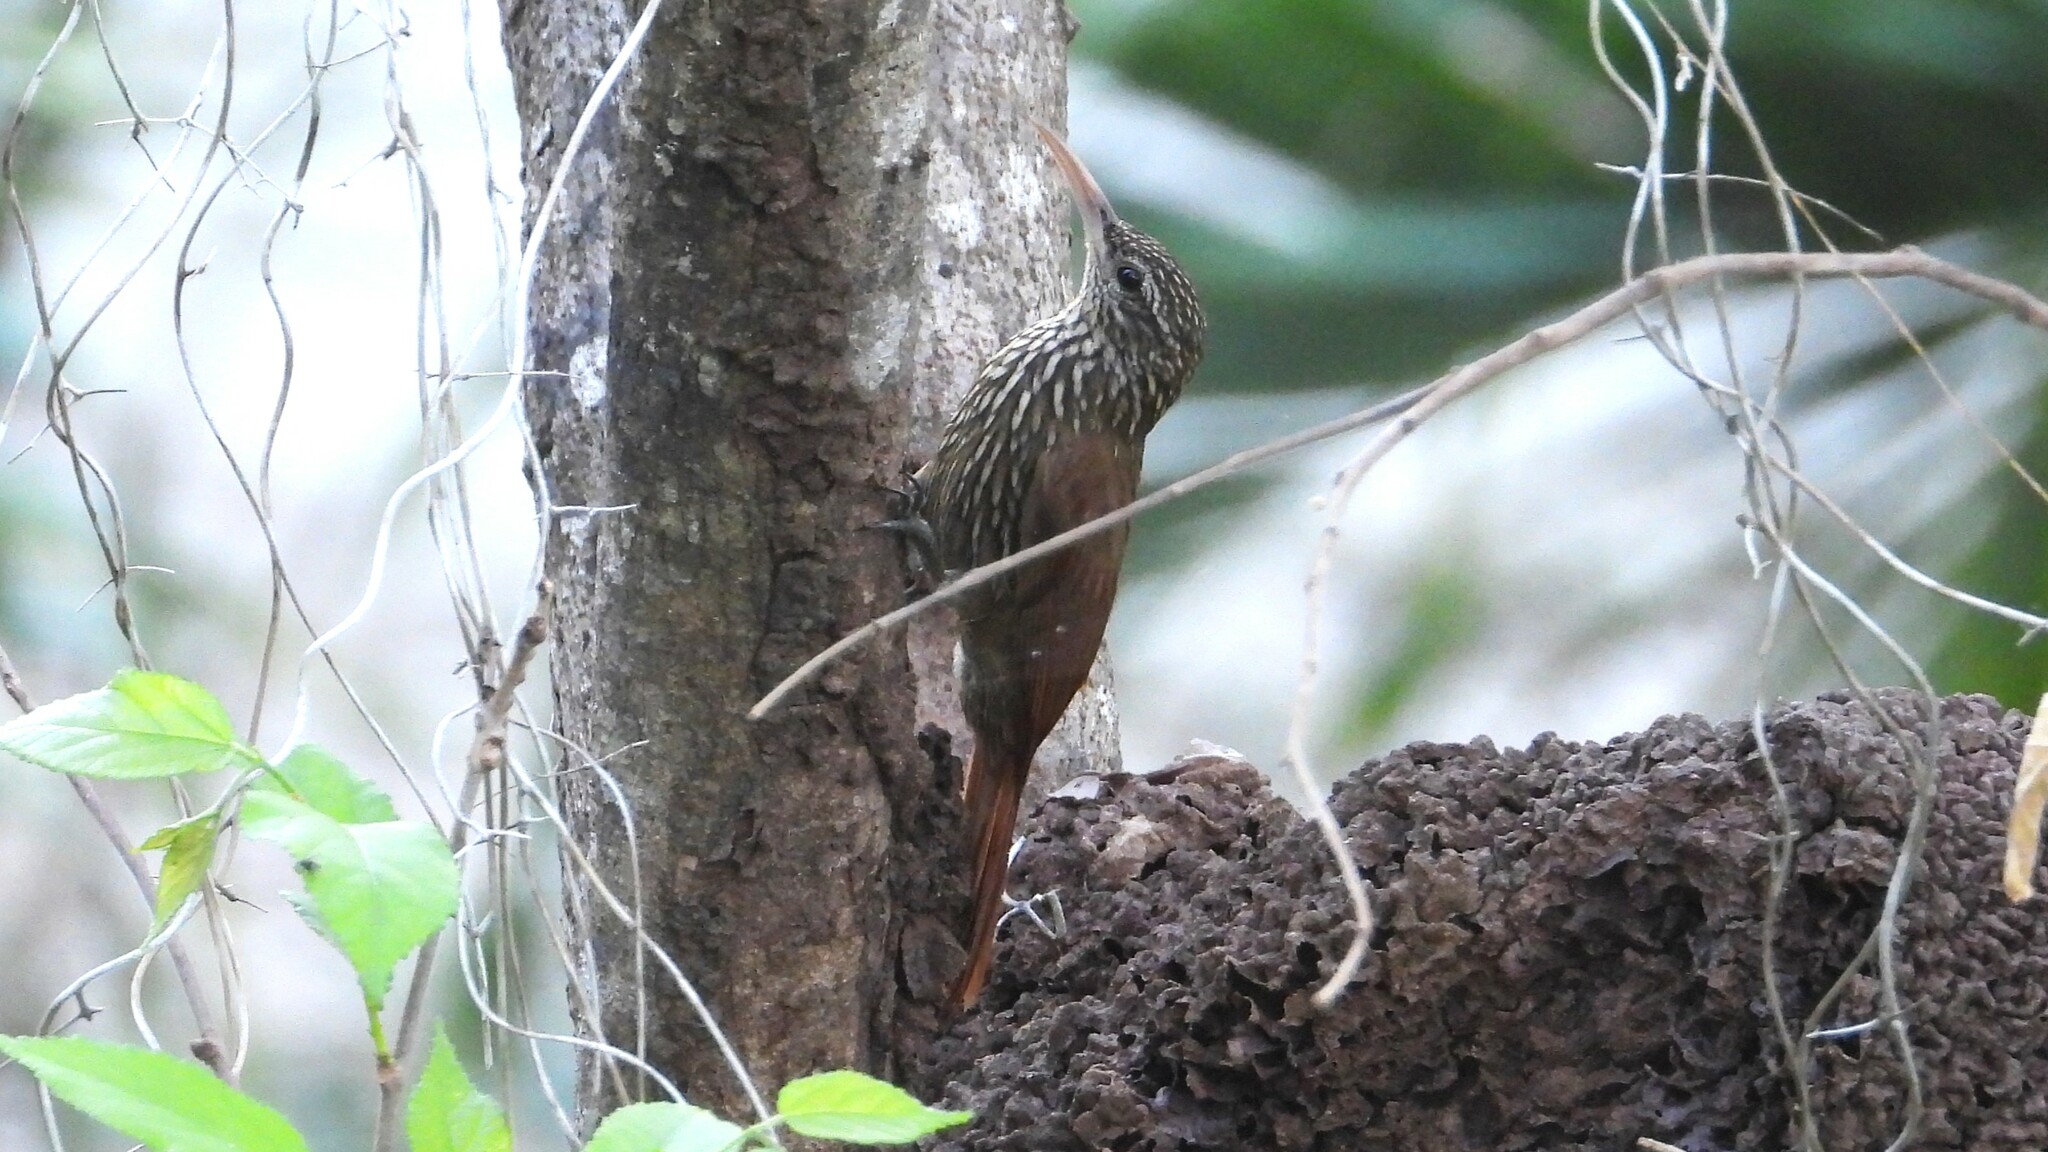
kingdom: Animalia
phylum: Chordata
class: Aves
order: Passeriformes
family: Furnariidae
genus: Lepidocolaptes
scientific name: Lepidocolaptes souleyetii
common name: Streak-headed woodcreeper
